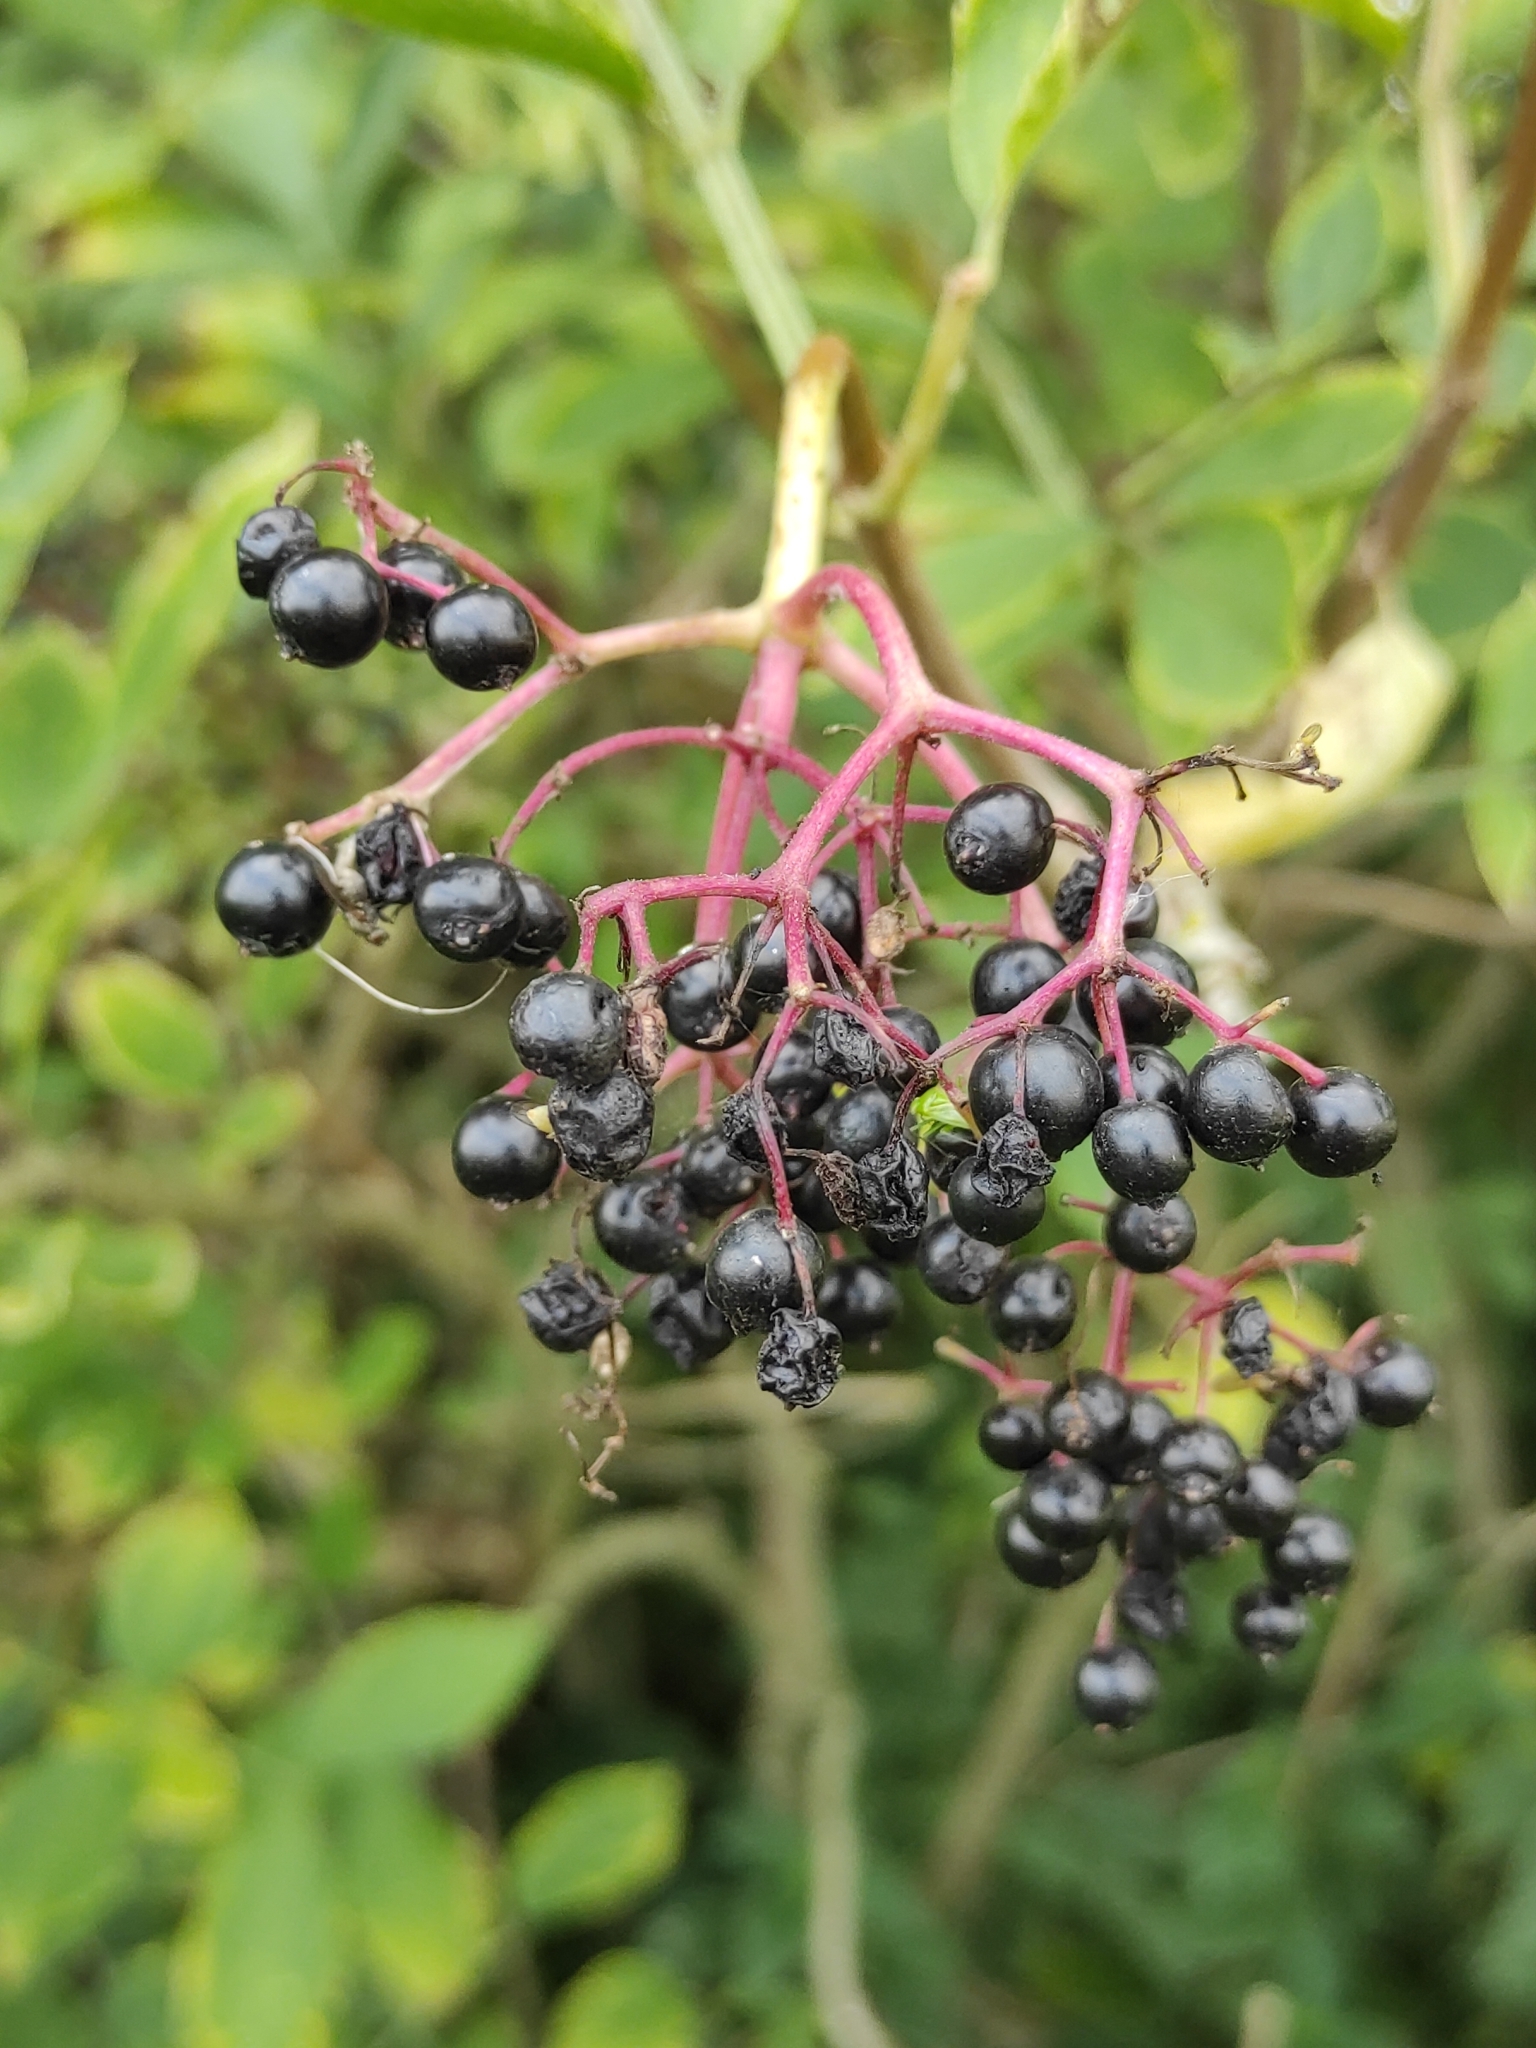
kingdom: Plantae
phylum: Tracheophyta
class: Magnoliopsida
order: Dipsacales
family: Viburnaceae
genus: Sambucus
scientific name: Sambucus nigra
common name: Elder
